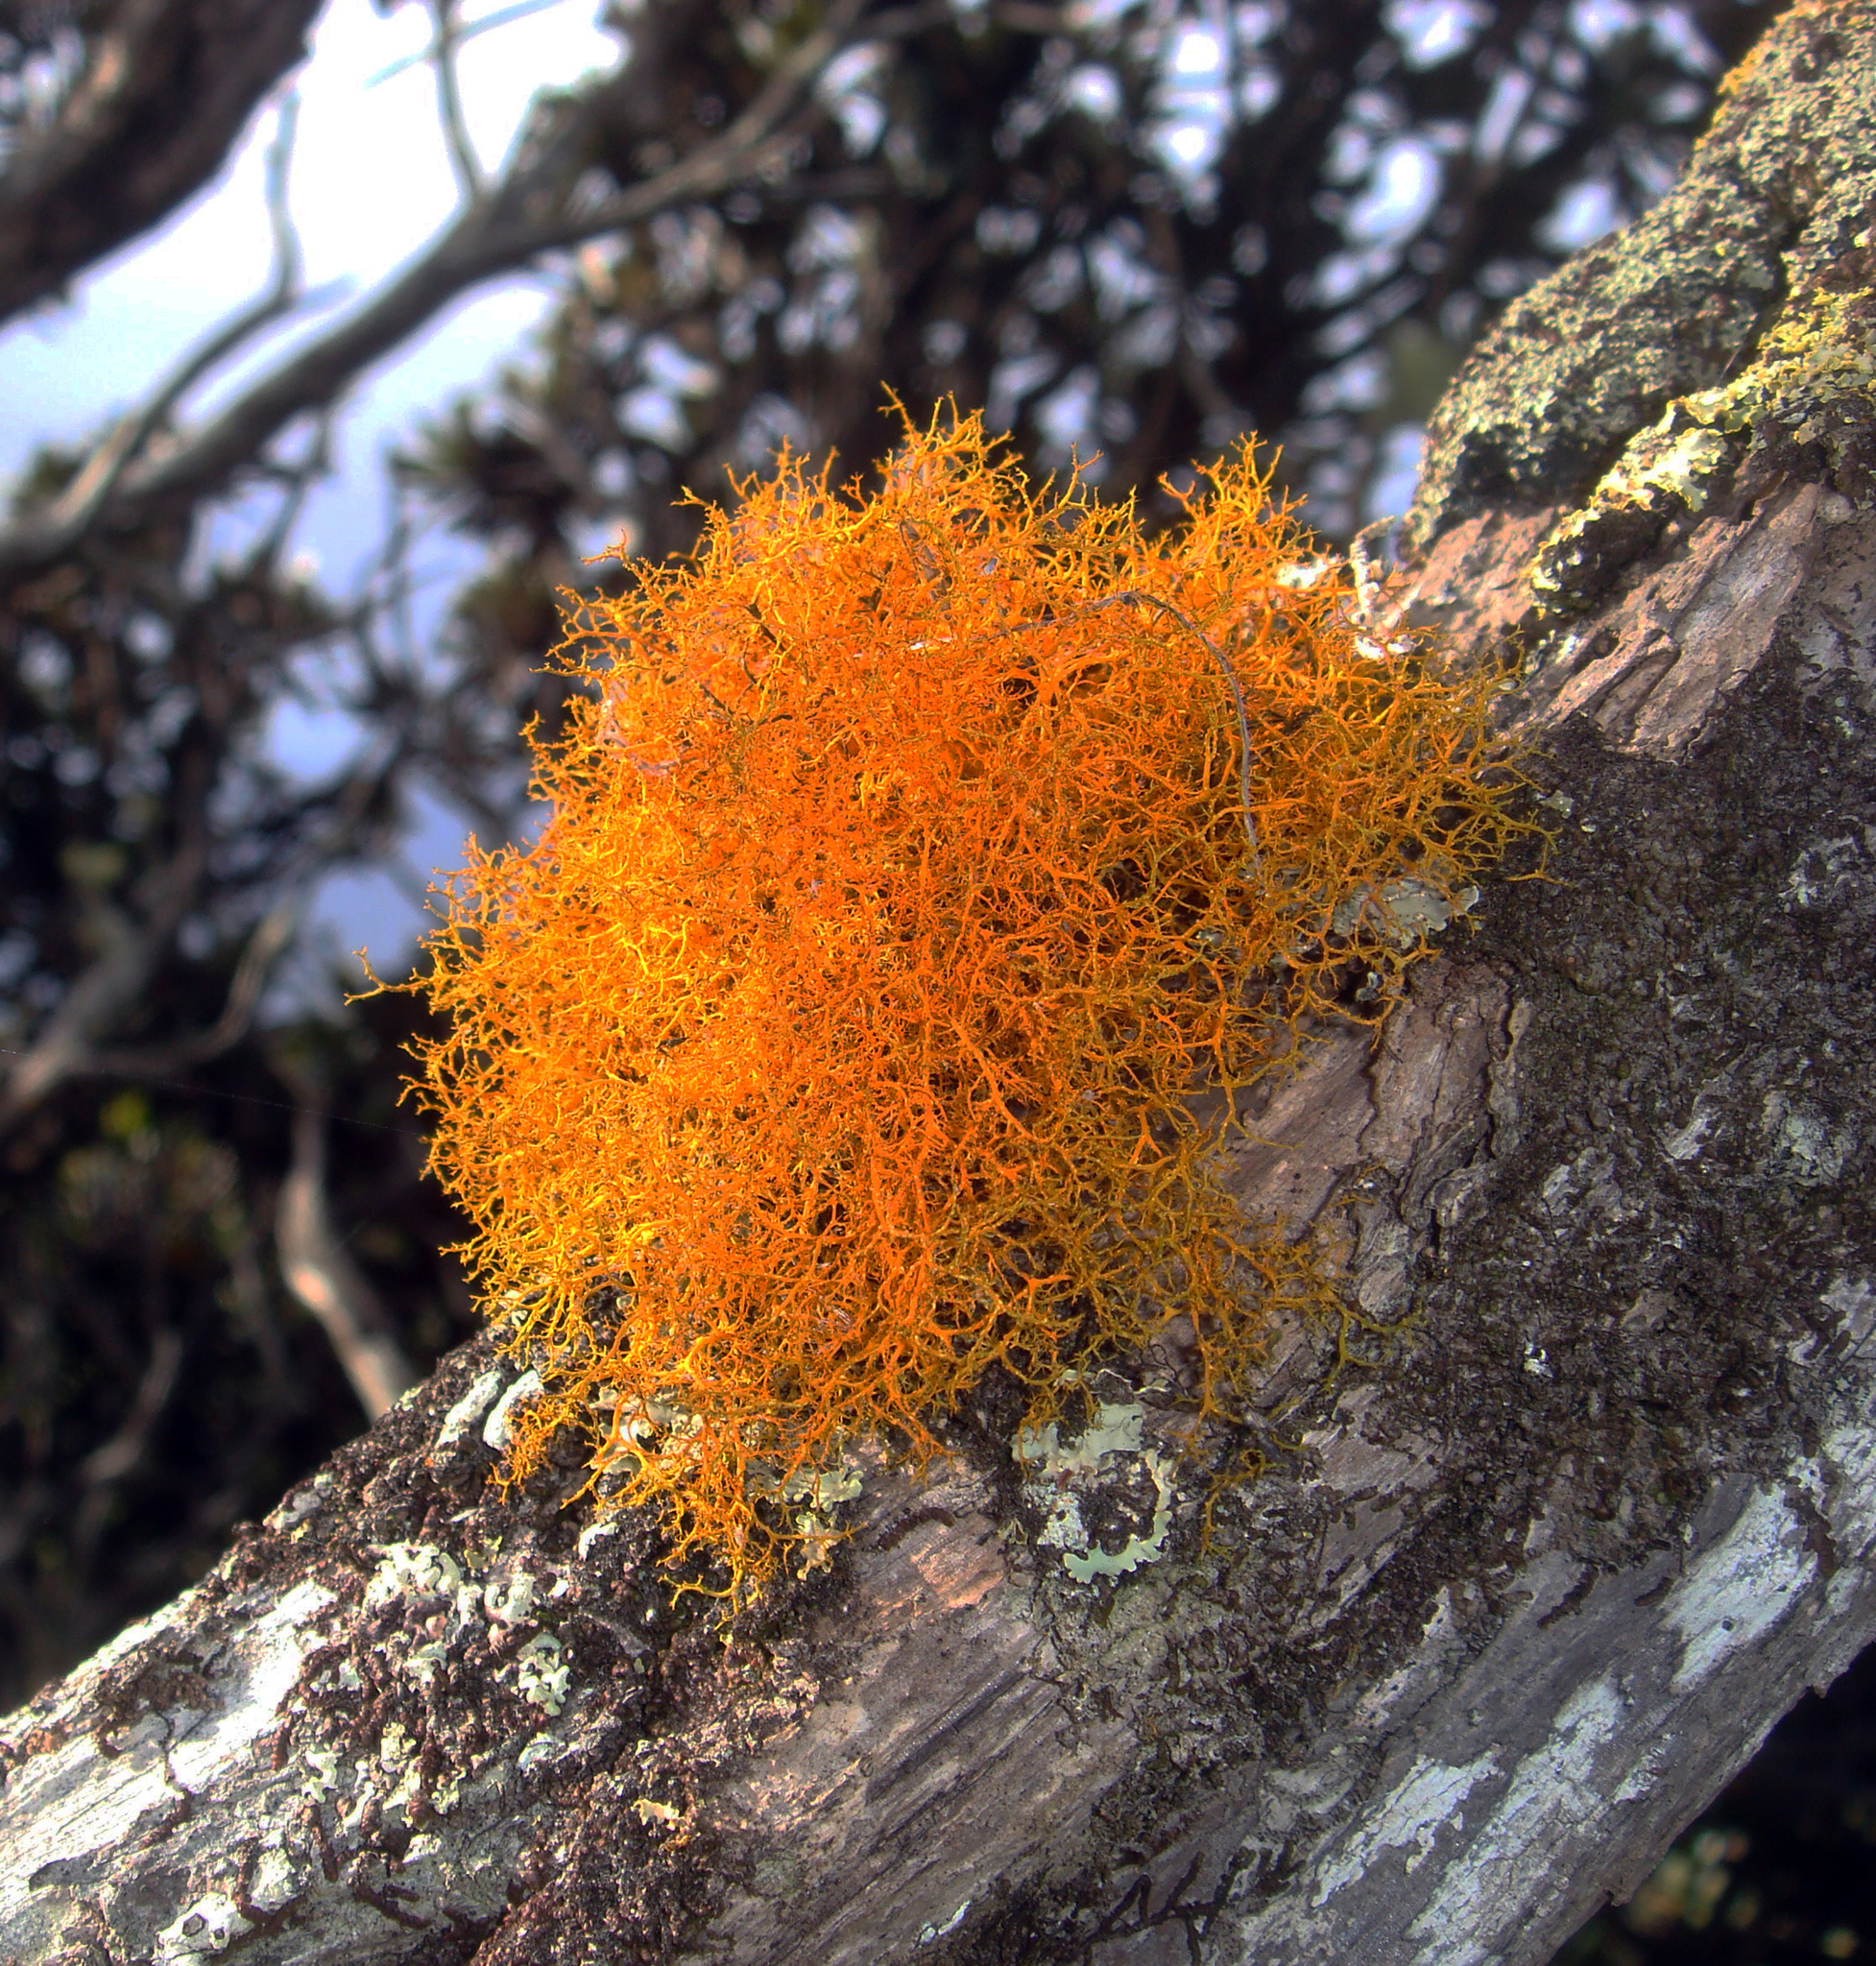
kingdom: Fungi
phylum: Ascomycota
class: Lecanoromycetes
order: Teloschistales
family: Teloschistaceae
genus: Teloschistes
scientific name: Teloschistes flavicans
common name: Golden hair-lichen
